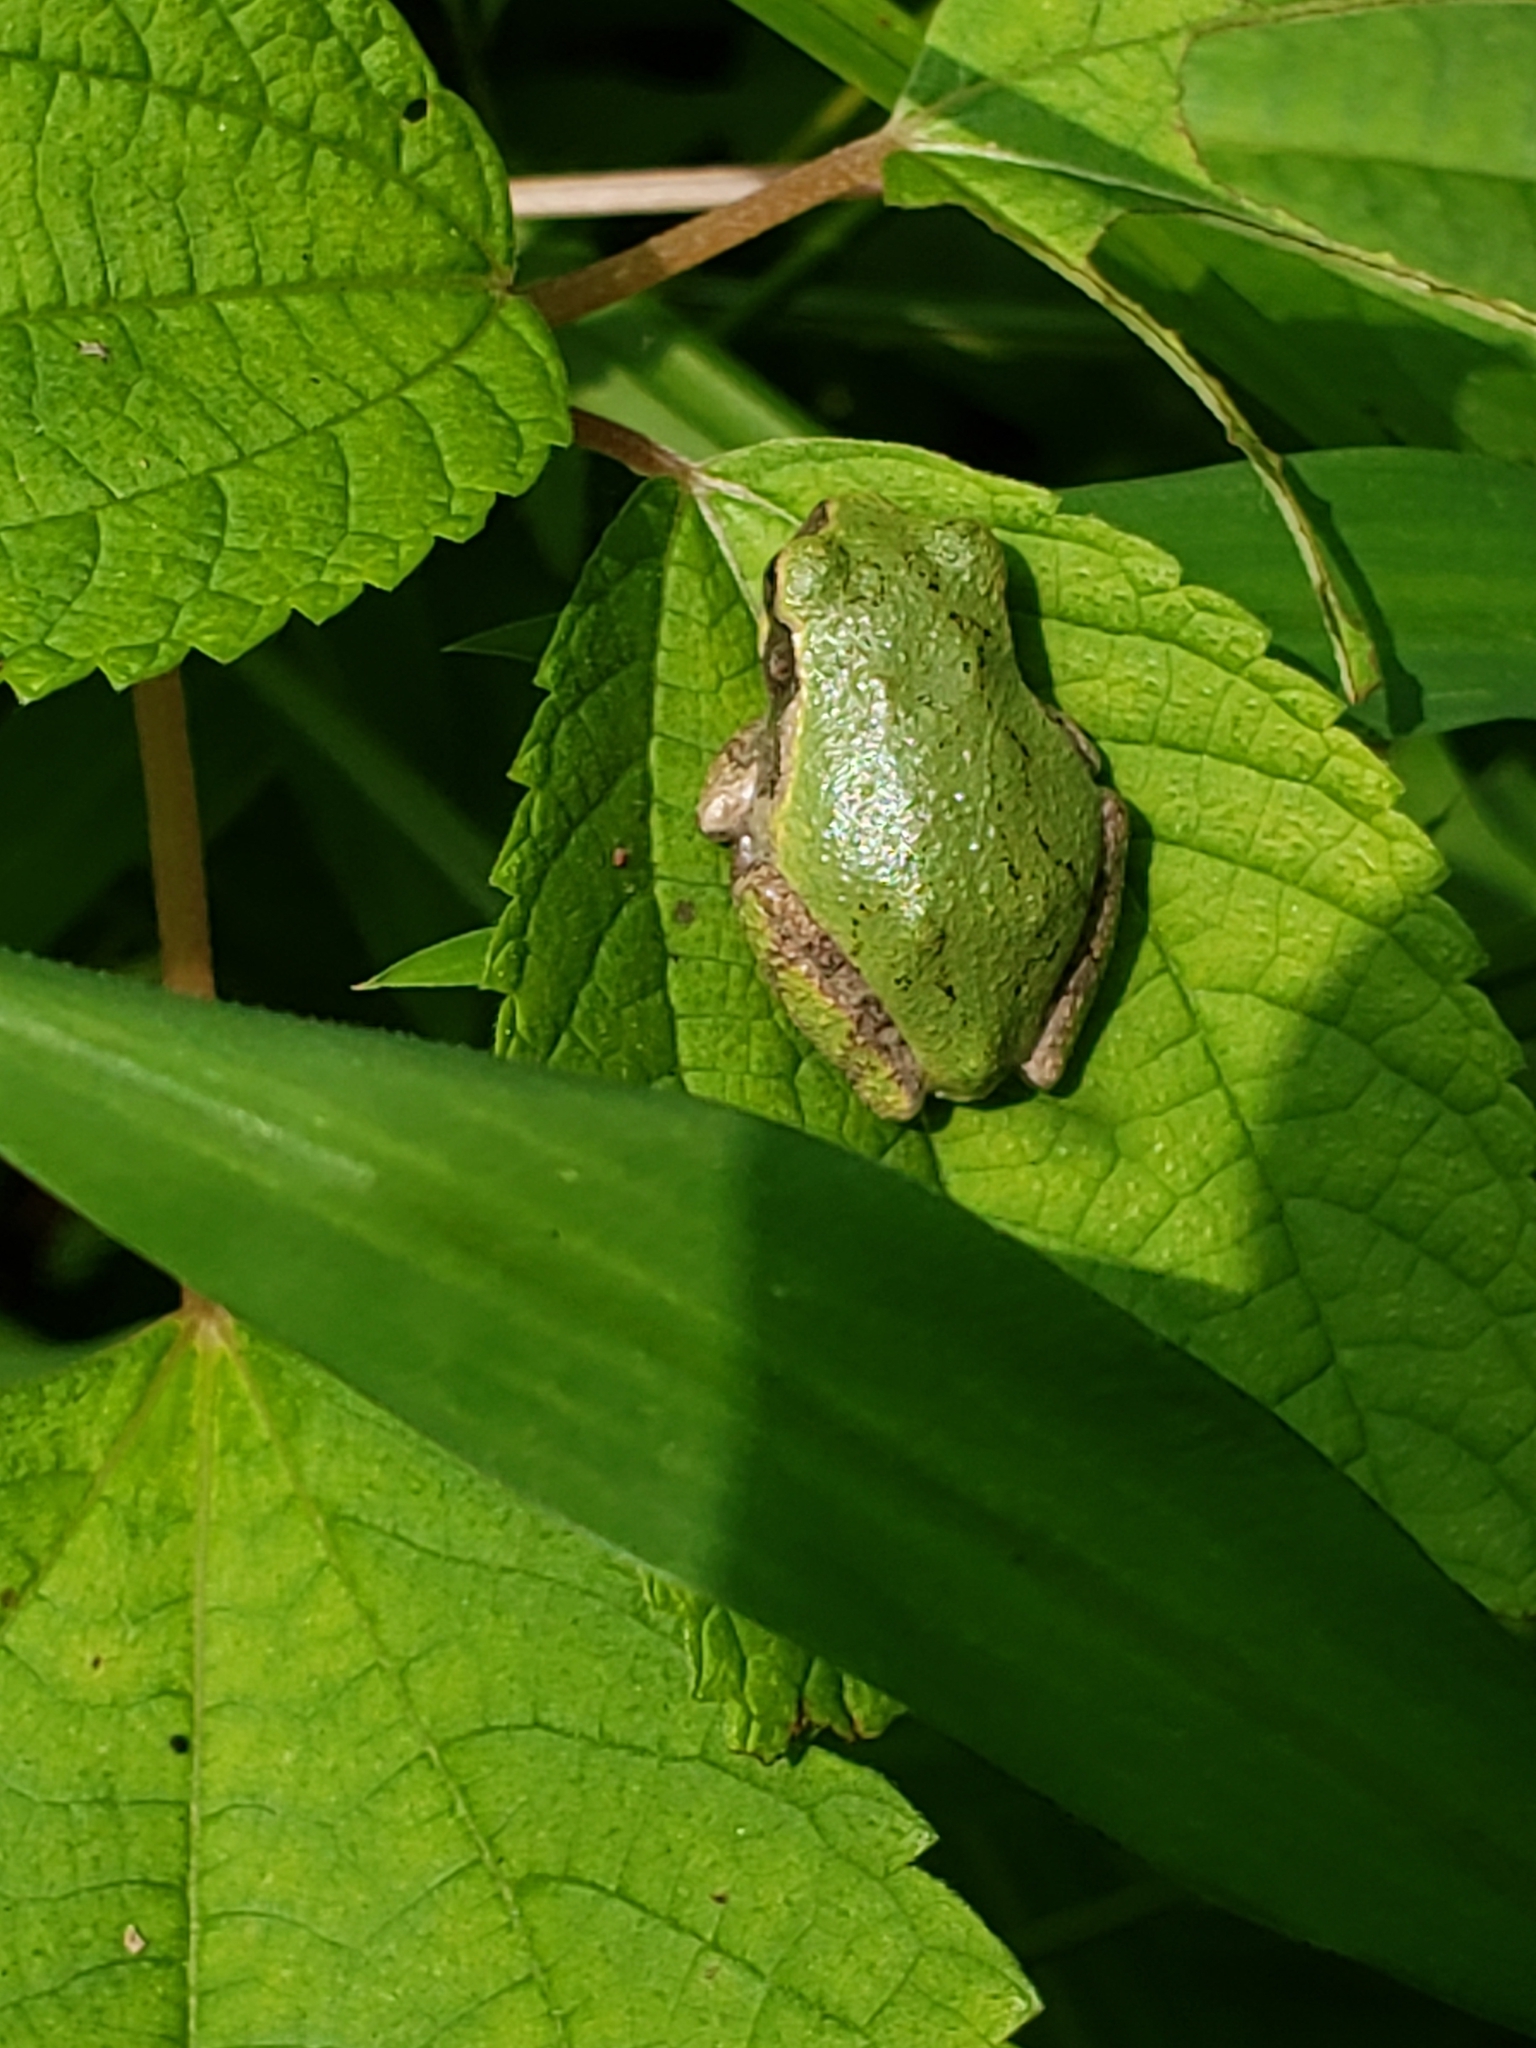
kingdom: Animalia
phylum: Chordata
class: Amphibia
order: Anura
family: Hylidae
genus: Hyla
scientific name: Hyla
